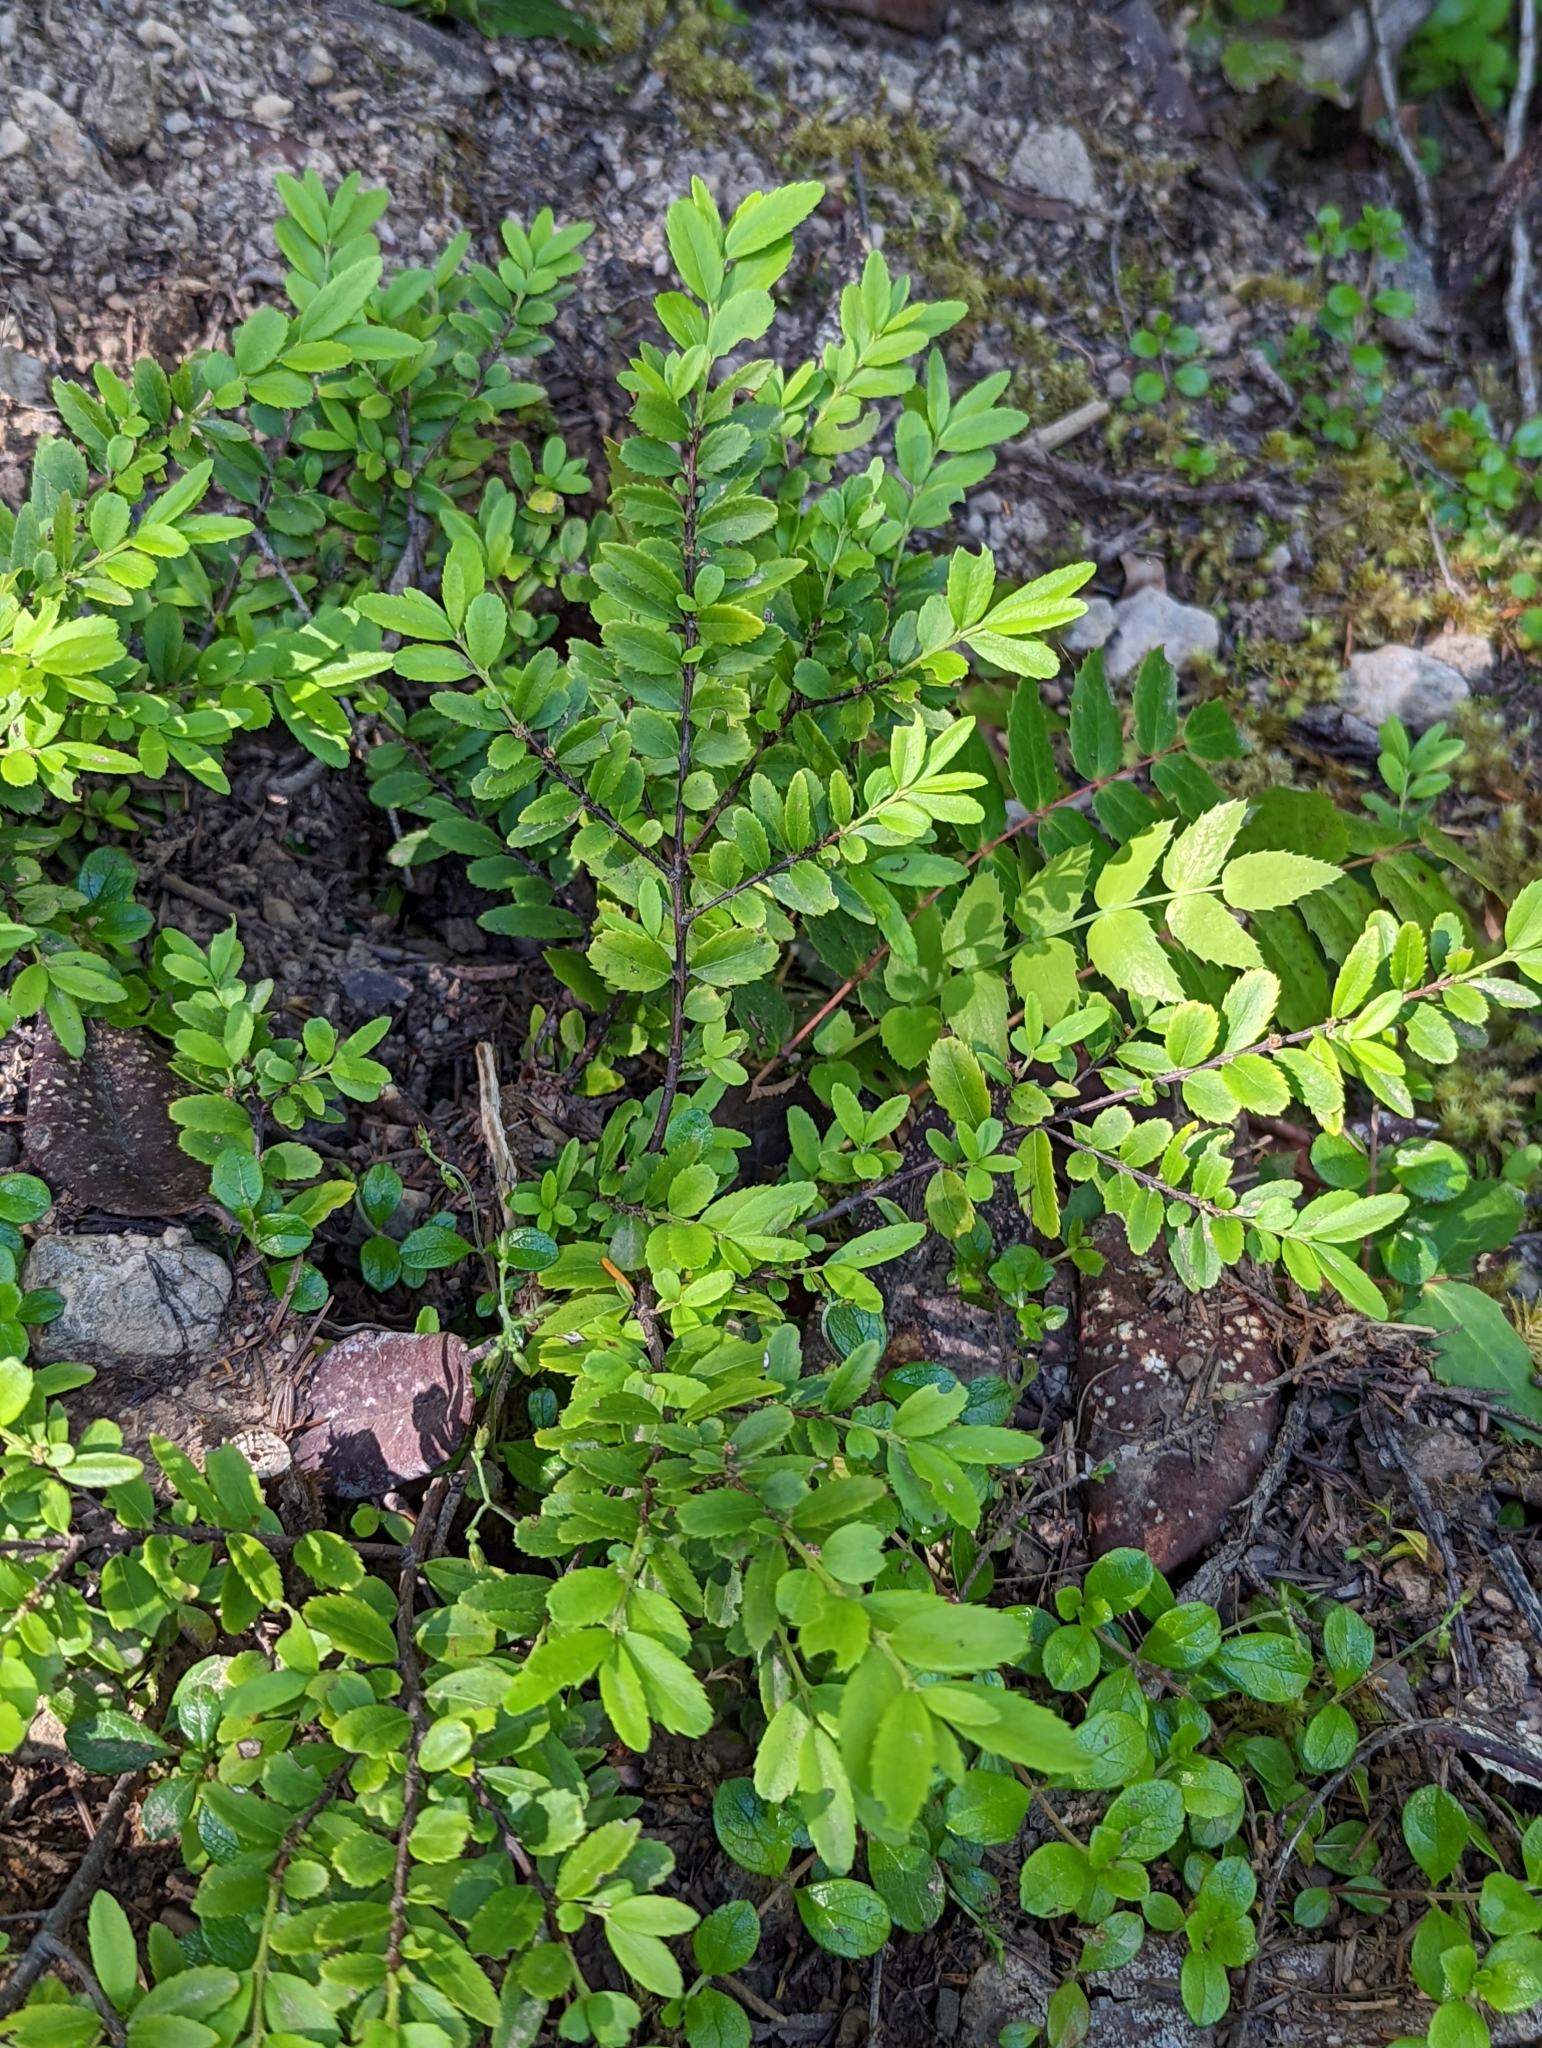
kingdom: Plantae
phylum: Tracheophyta
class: Magnoliopsida
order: Celastrales
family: Celastraceae
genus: Paxistima
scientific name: Paxistima myrsinites
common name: Mountain-lover
